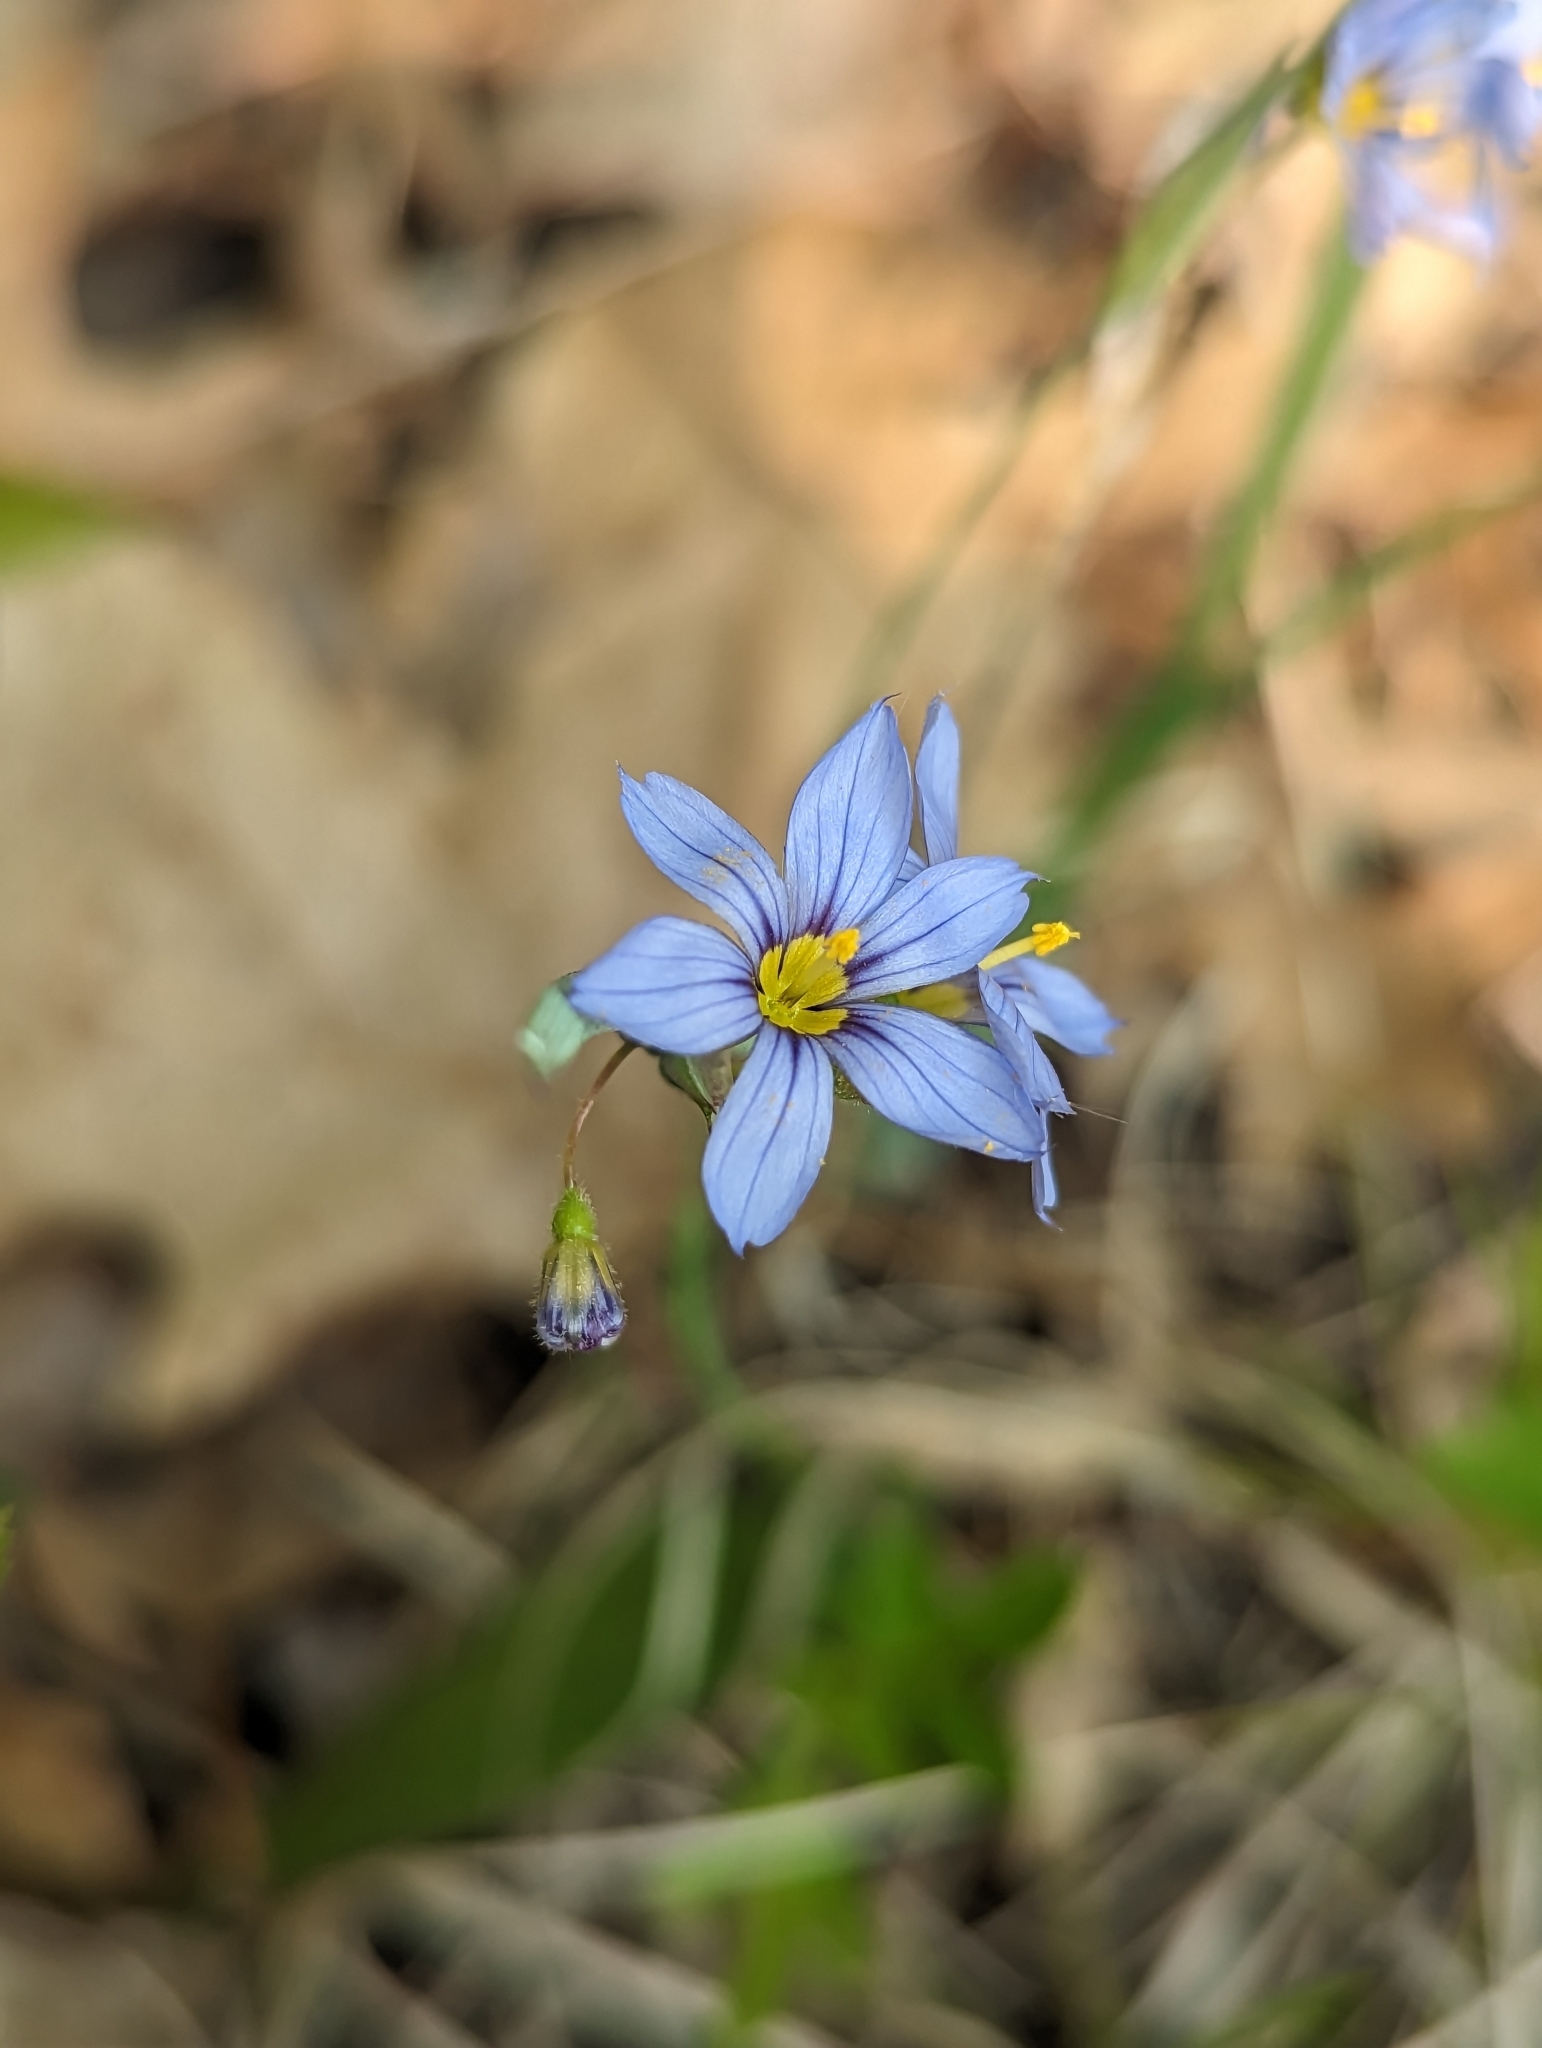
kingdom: Plantae
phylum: Tracheophyta
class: Liliopsida
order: Asparagales
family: Iridaceae
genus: Sisyrinchium
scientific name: Sisyrinchium angustifolium
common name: Narrow-leaf blue-eyed-grass
